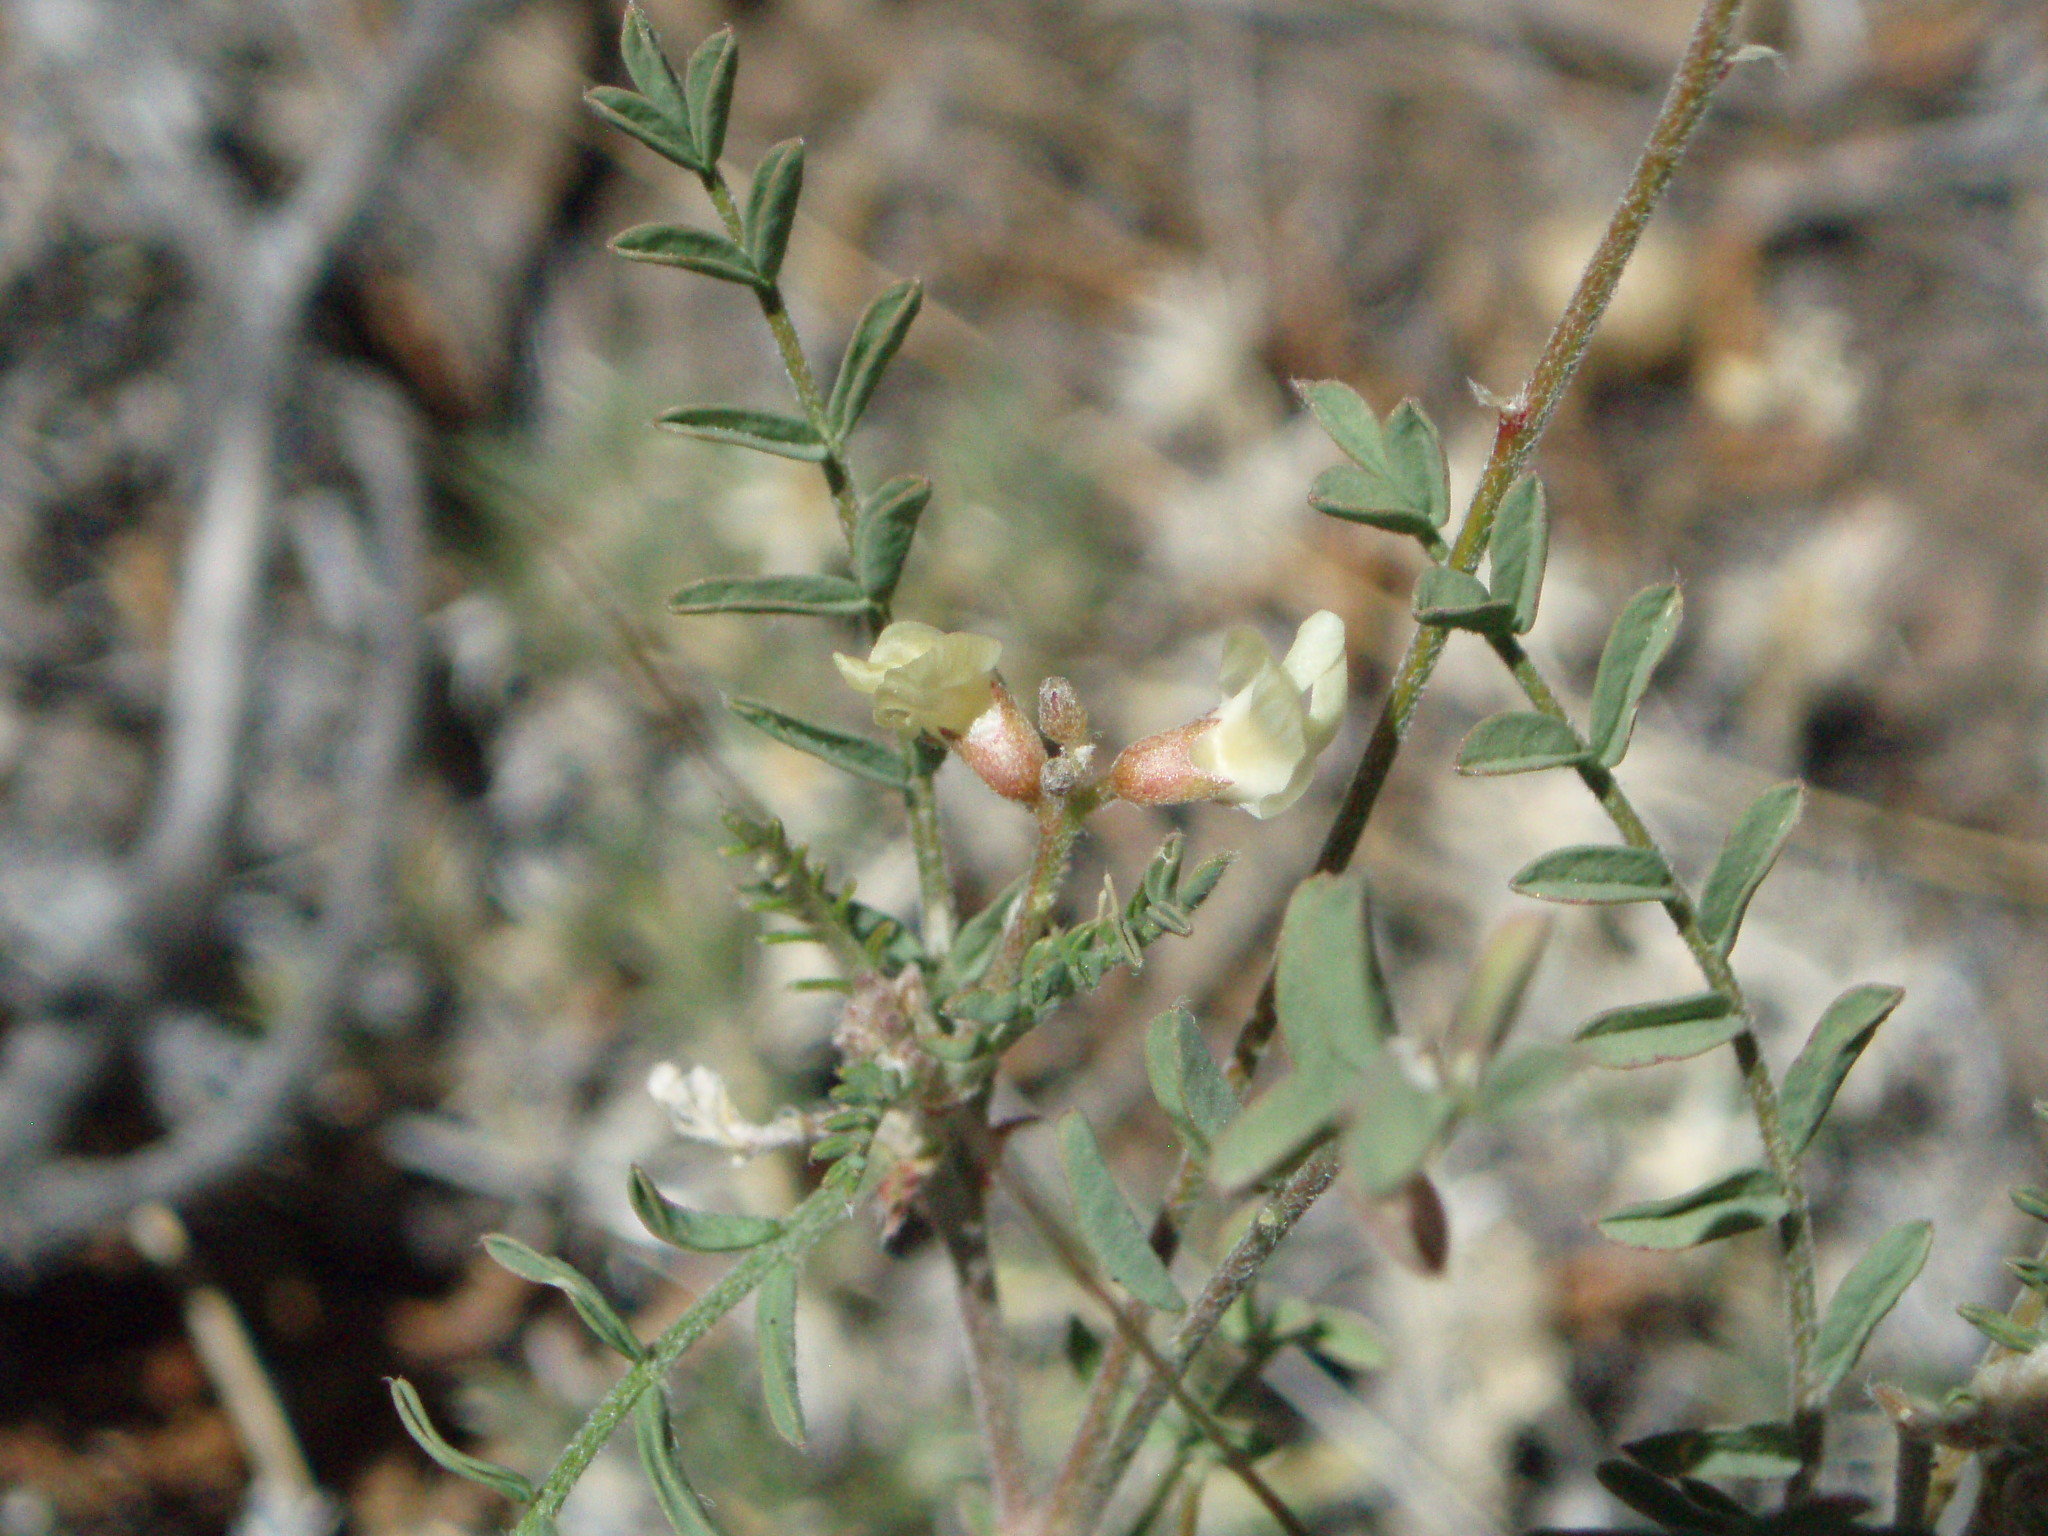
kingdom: Plantae
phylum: Tracheophyta
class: Magnoliopsida
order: Fabales
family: Fabaceae
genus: Astragalus
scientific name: Astragalus misellus
